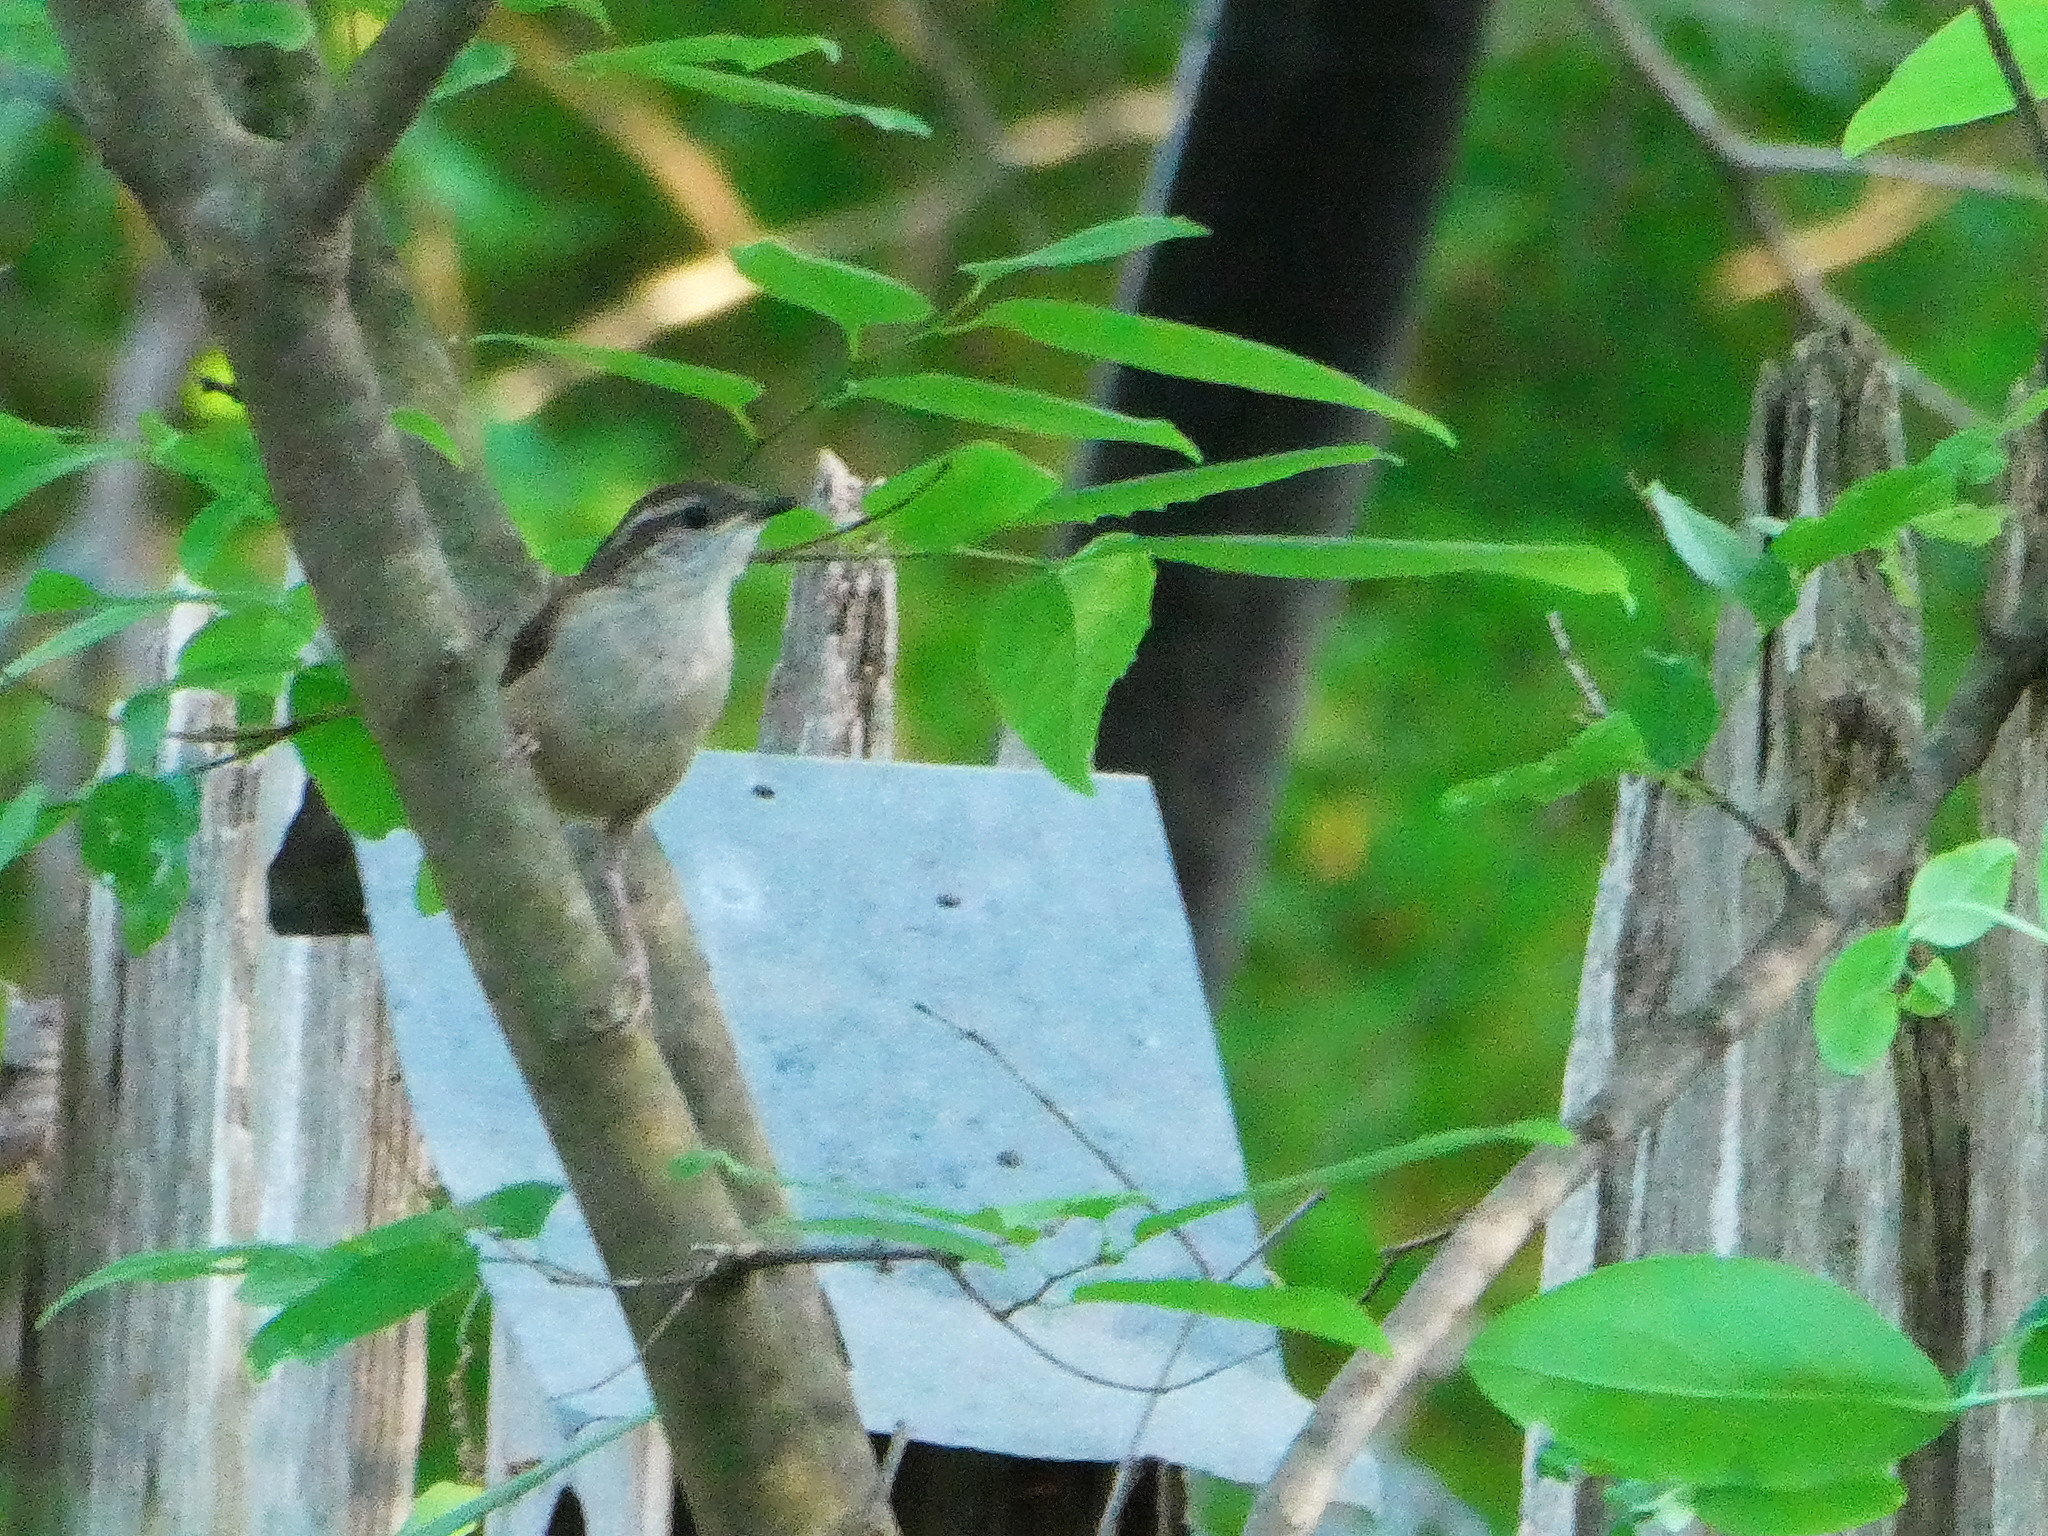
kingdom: Animalia
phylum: Chordata
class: Aves
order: Passeriformes
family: Troglodytidae
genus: Thryothorus
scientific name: Thryothorus ludovicianus
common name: Carolina wren
